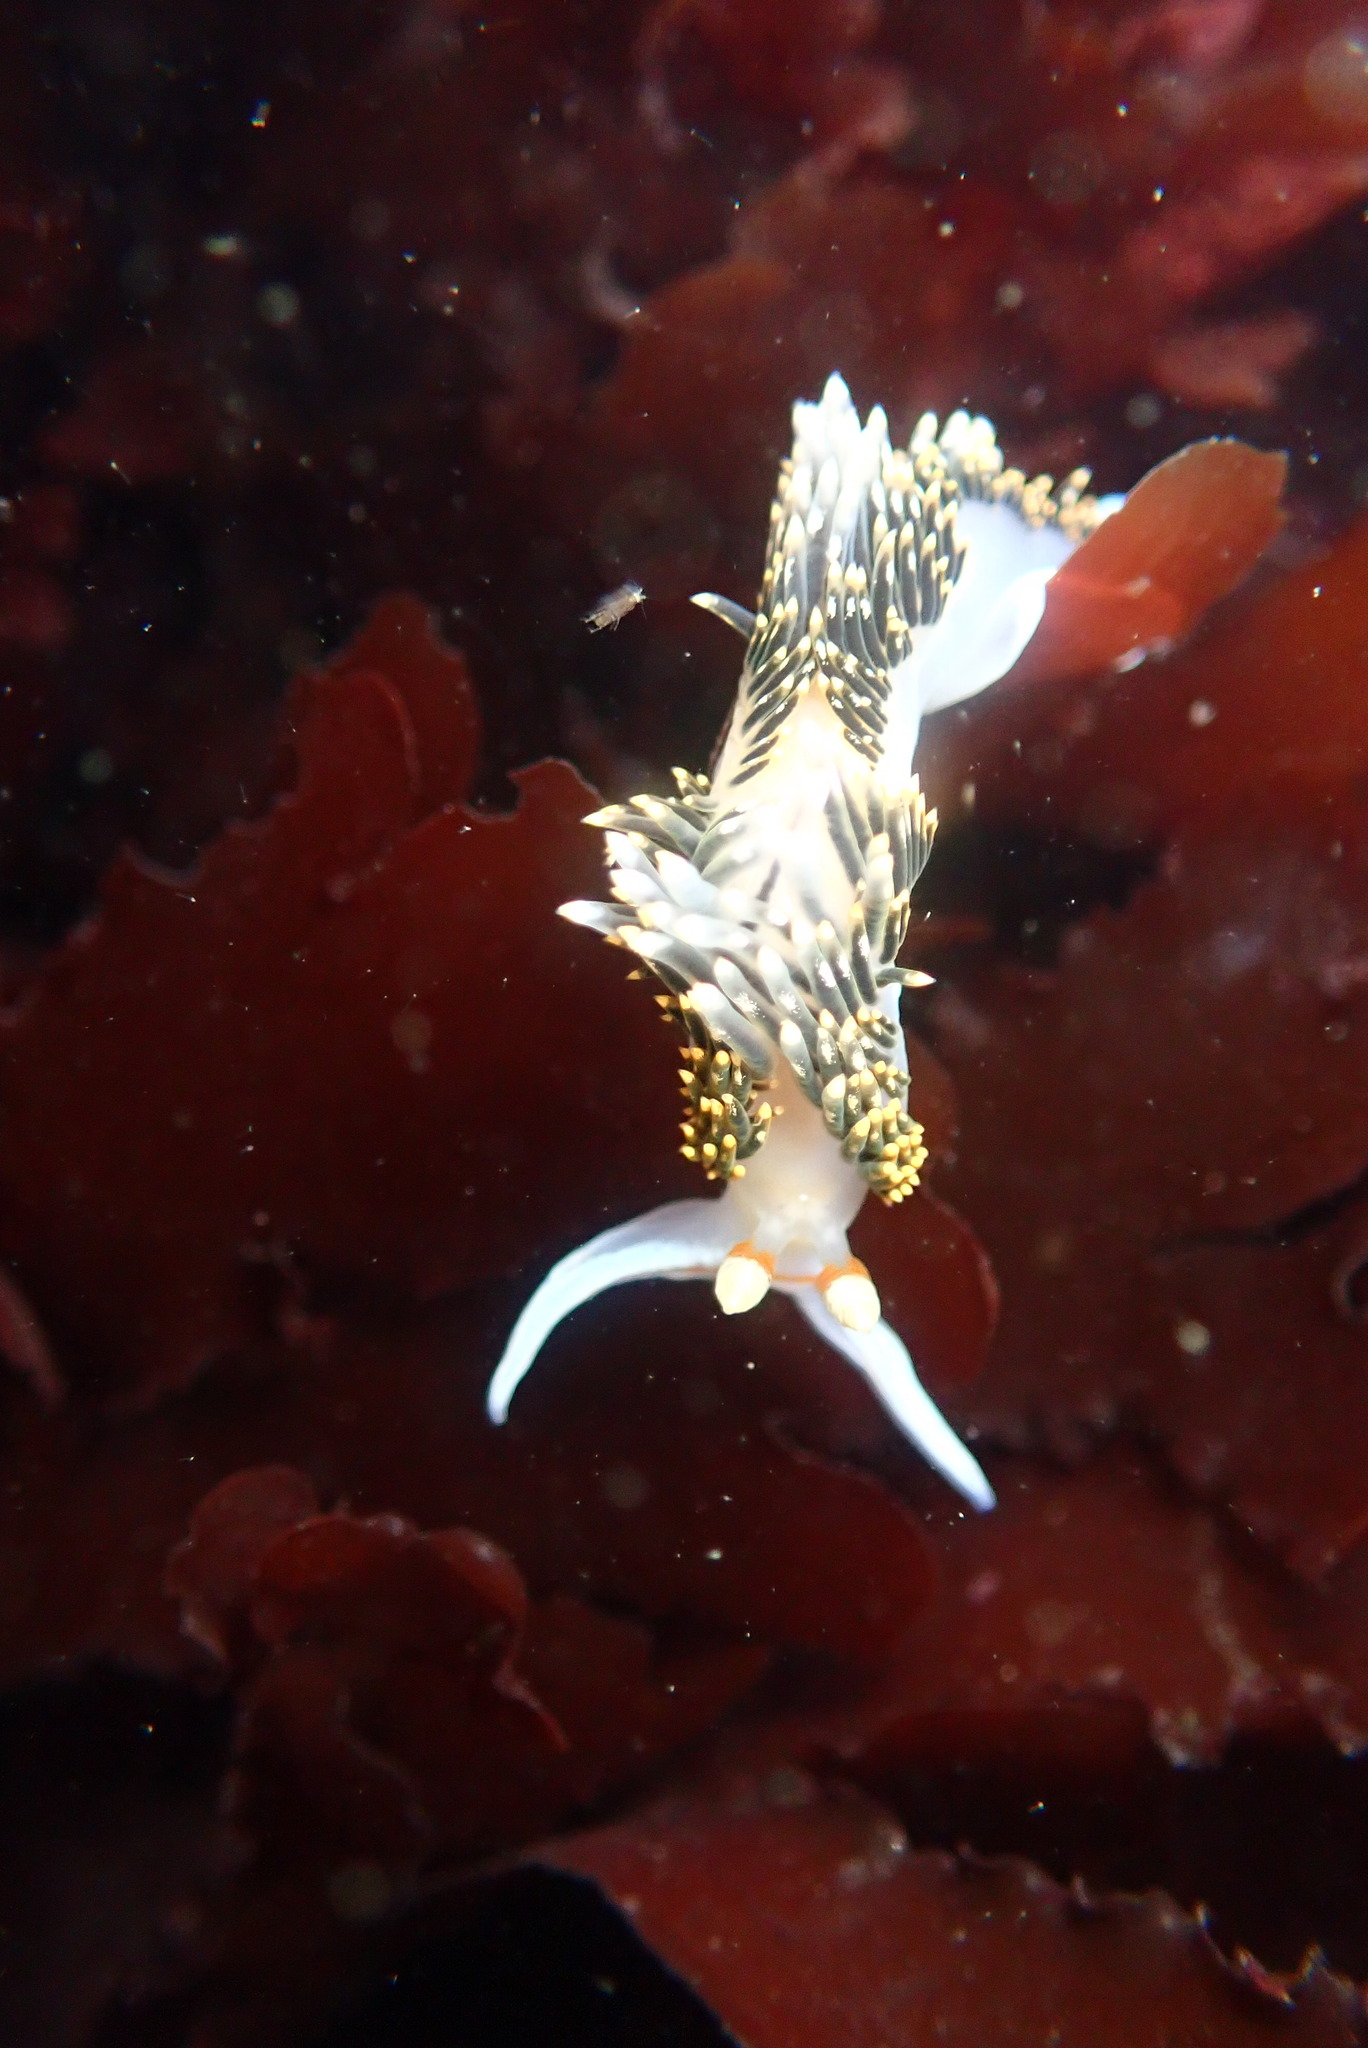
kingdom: Animalia
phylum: Mollusca
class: Gastropoda
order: Nudibranchia
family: Facelinidae
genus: Phidiana
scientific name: Phidiana hiltoni
